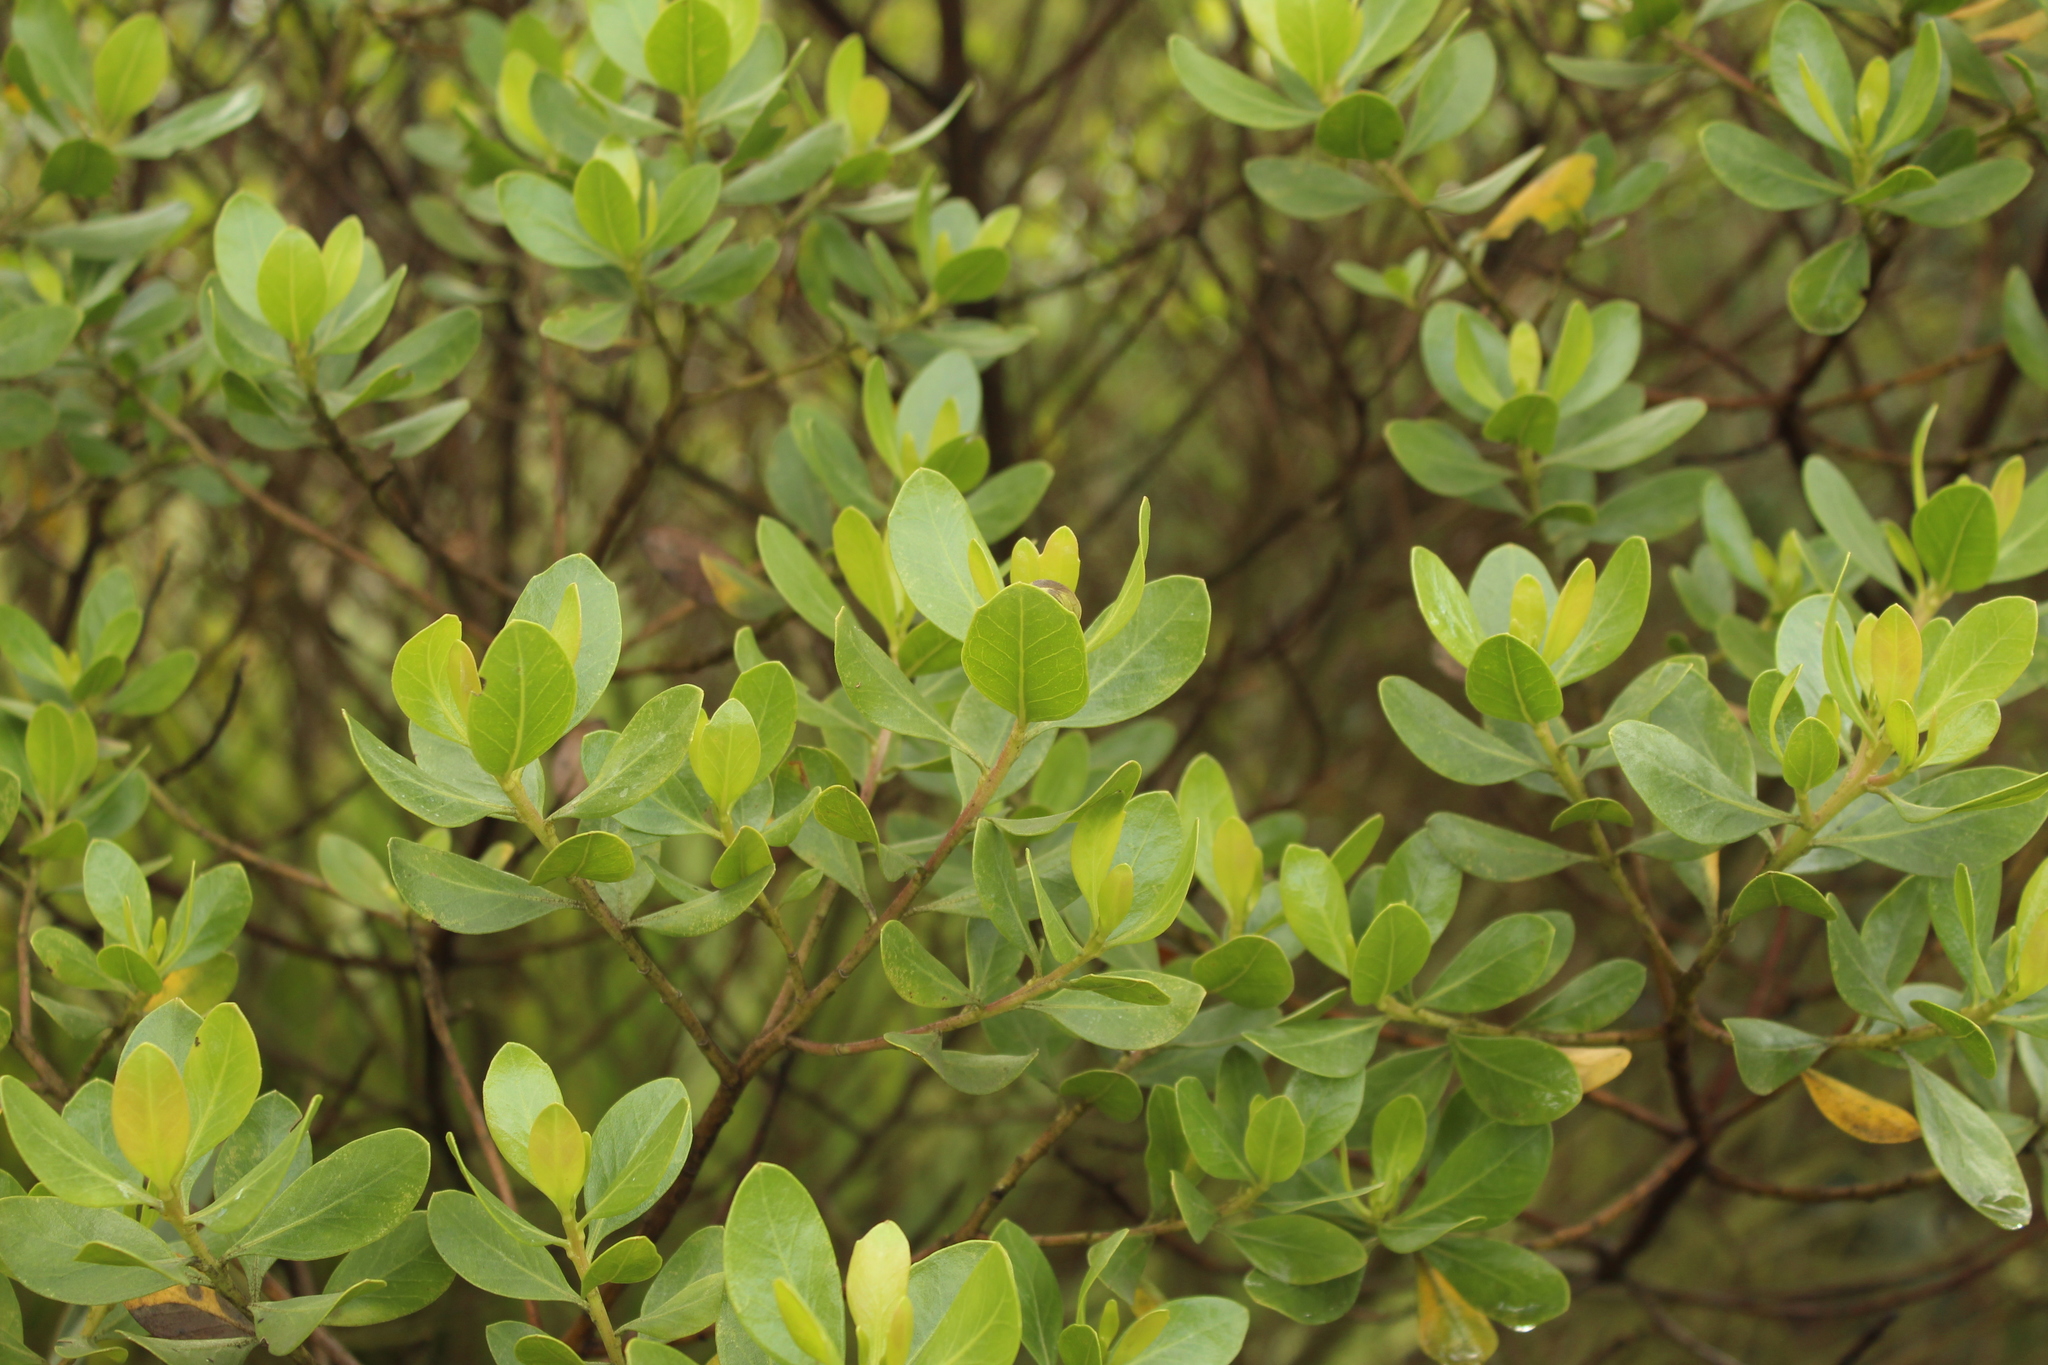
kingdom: Plantae
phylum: Tracheophyta
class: Magnoliopsida
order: Asterales
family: Asteraceae
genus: Baccharis
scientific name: Baccharis macrantha
